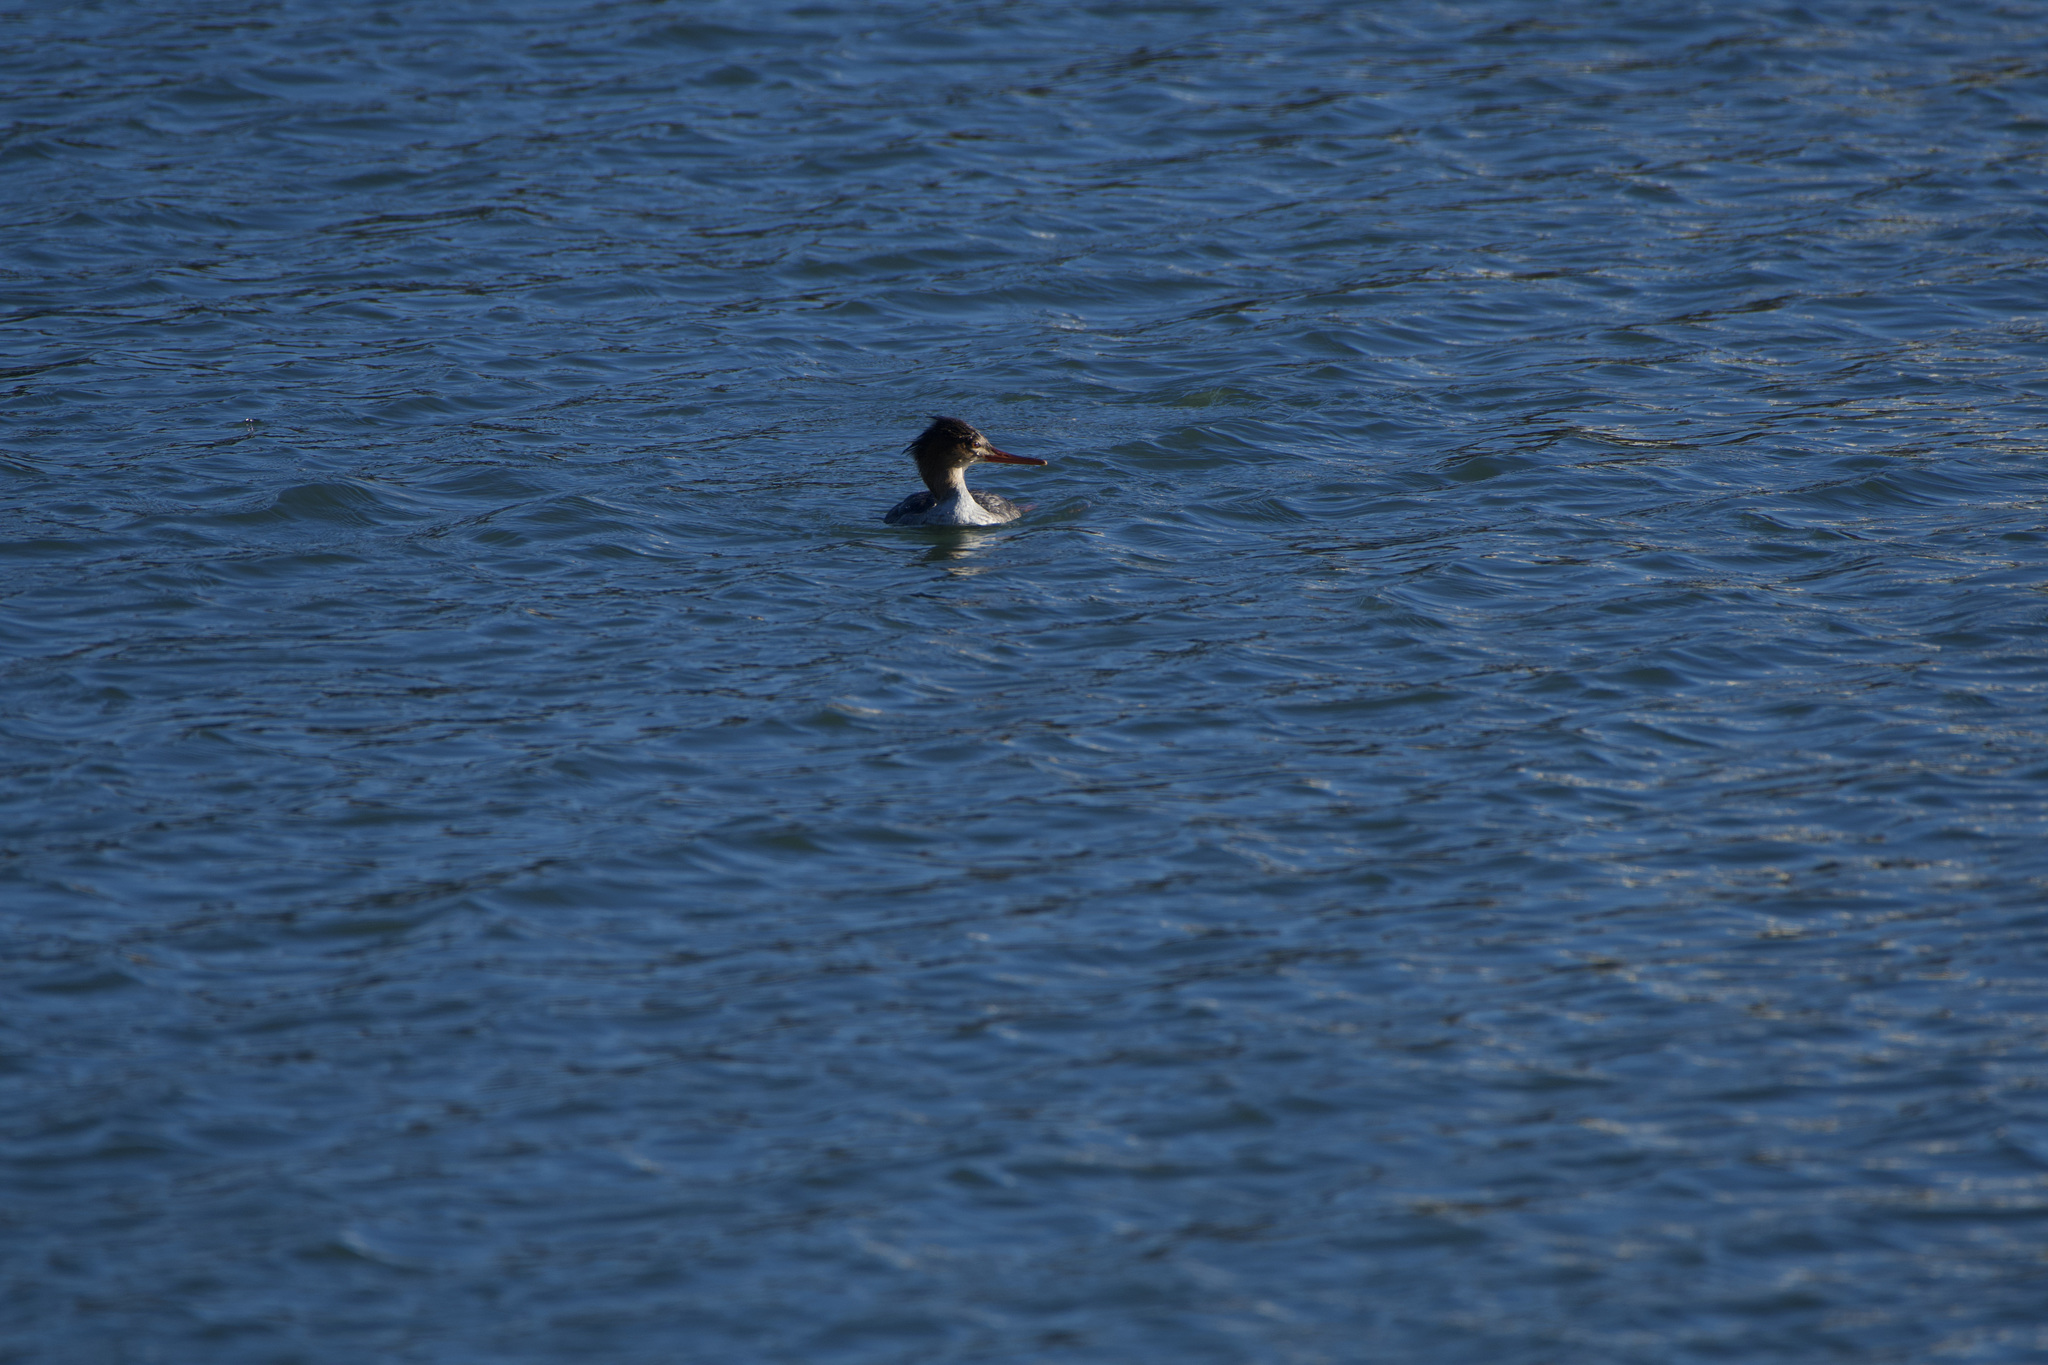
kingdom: Animalia
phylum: Chordata
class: Aves
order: Anseriformes
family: Anatidae
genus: Mergus
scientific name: Mergus serrator
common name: Red-breasted merganser
